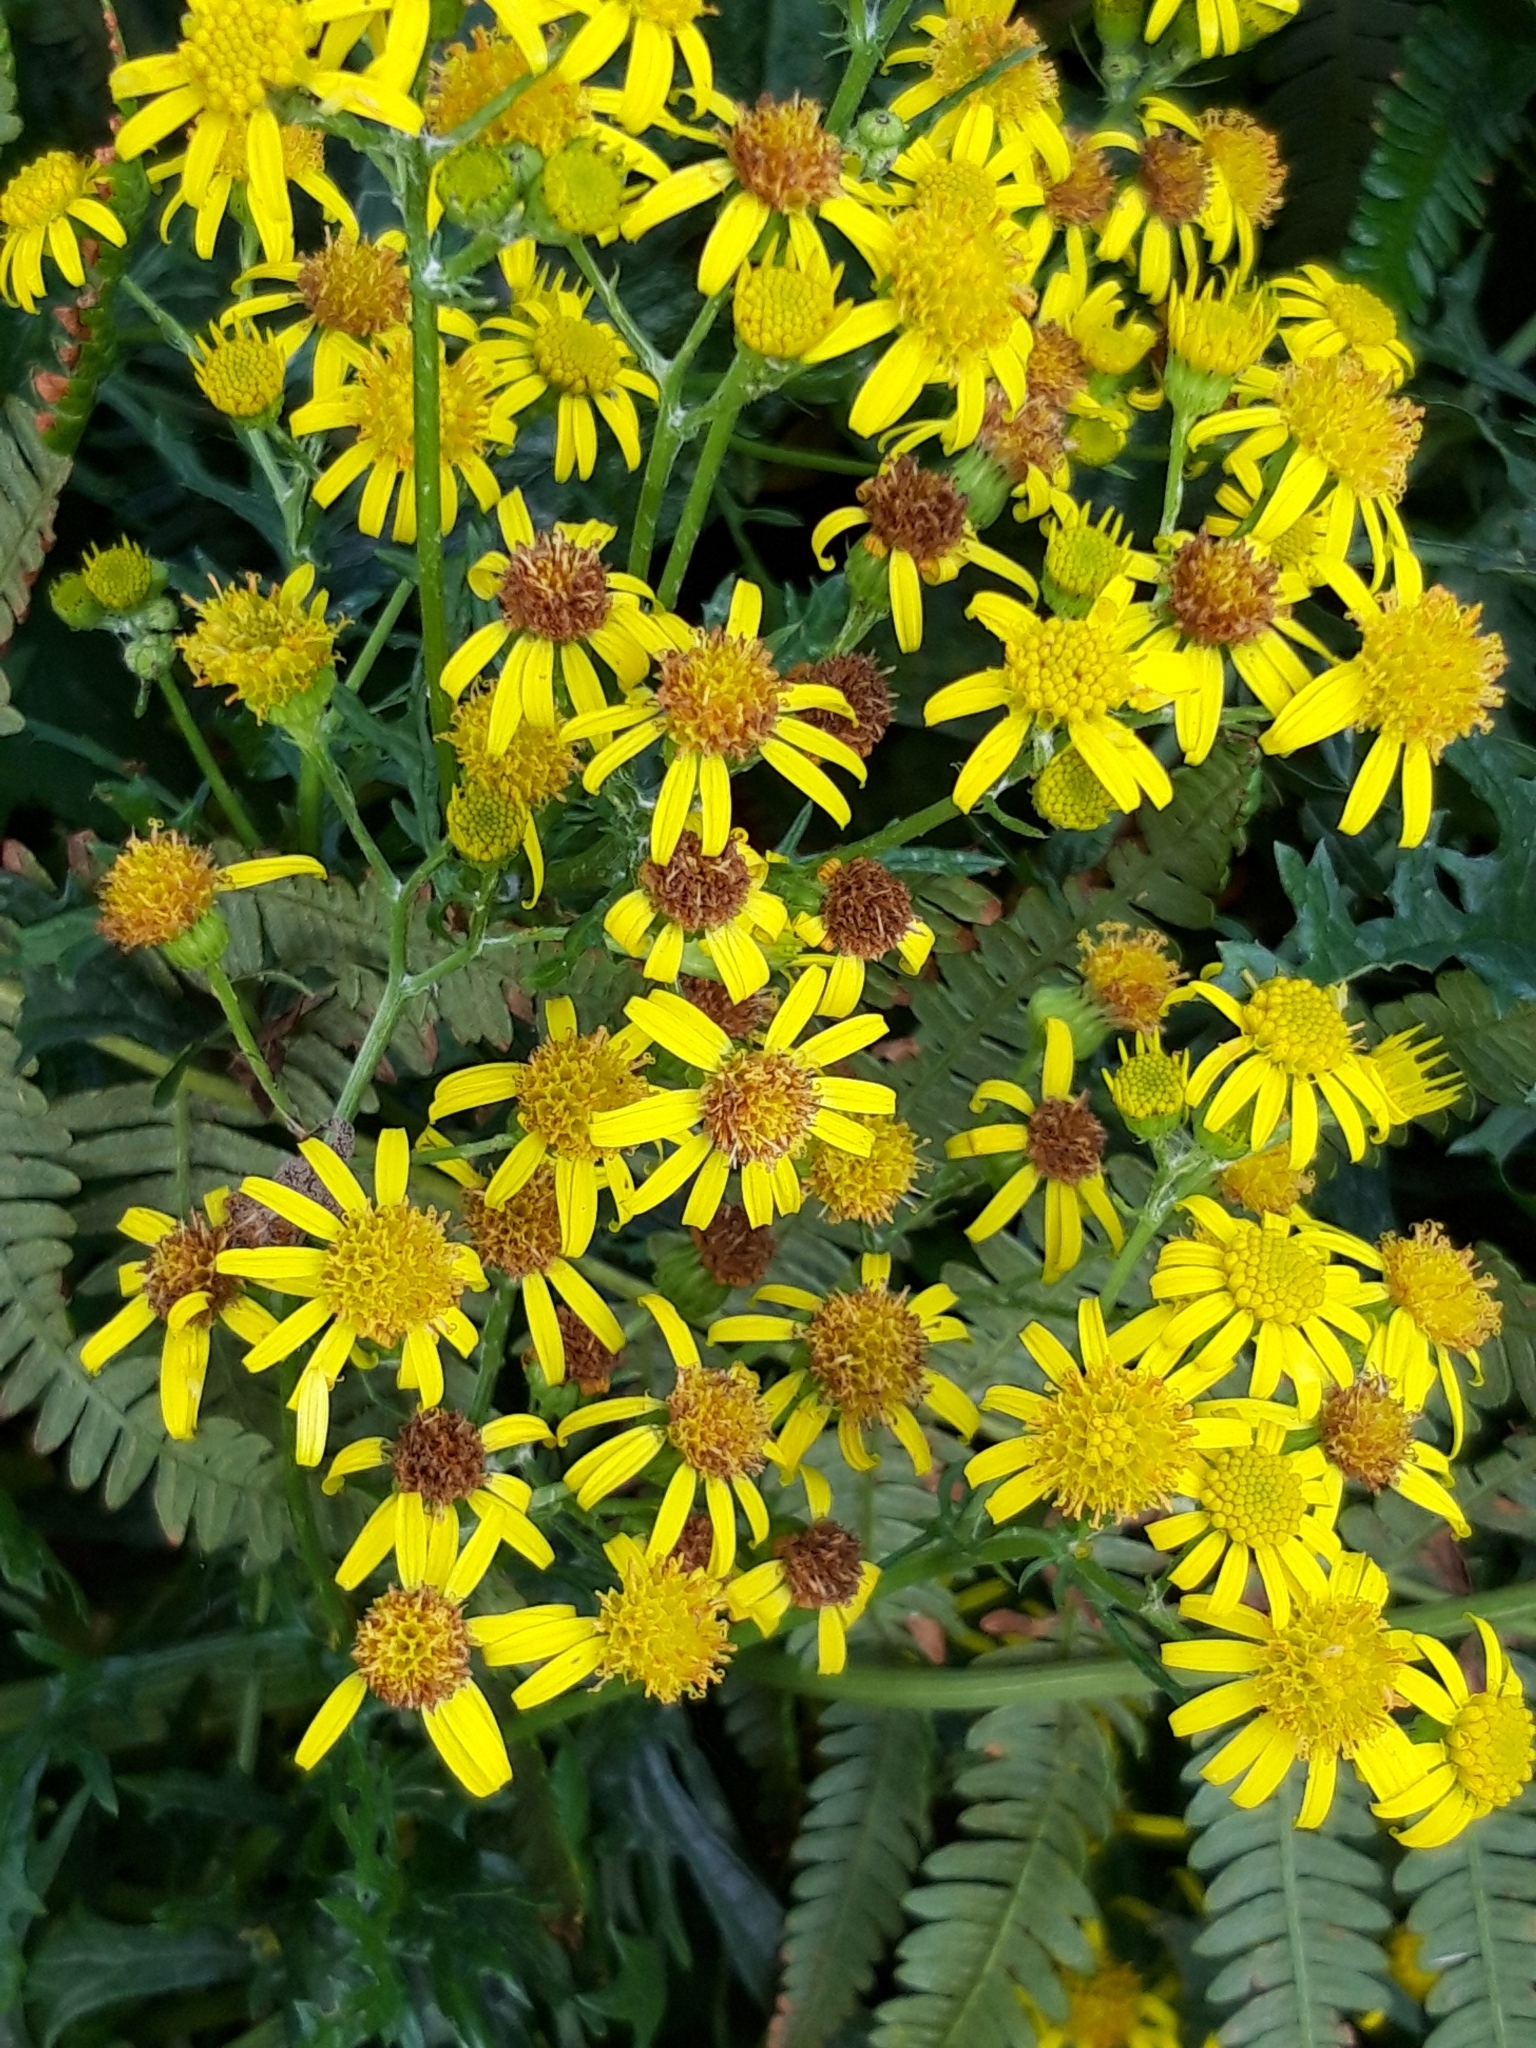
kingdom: Plantae
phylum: Tracheophyta
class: Magnoliopsida
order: Asterales
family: Asteraceae
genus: Jacobaea
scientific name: Jacobaea vulgaris
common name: Stinking willie
